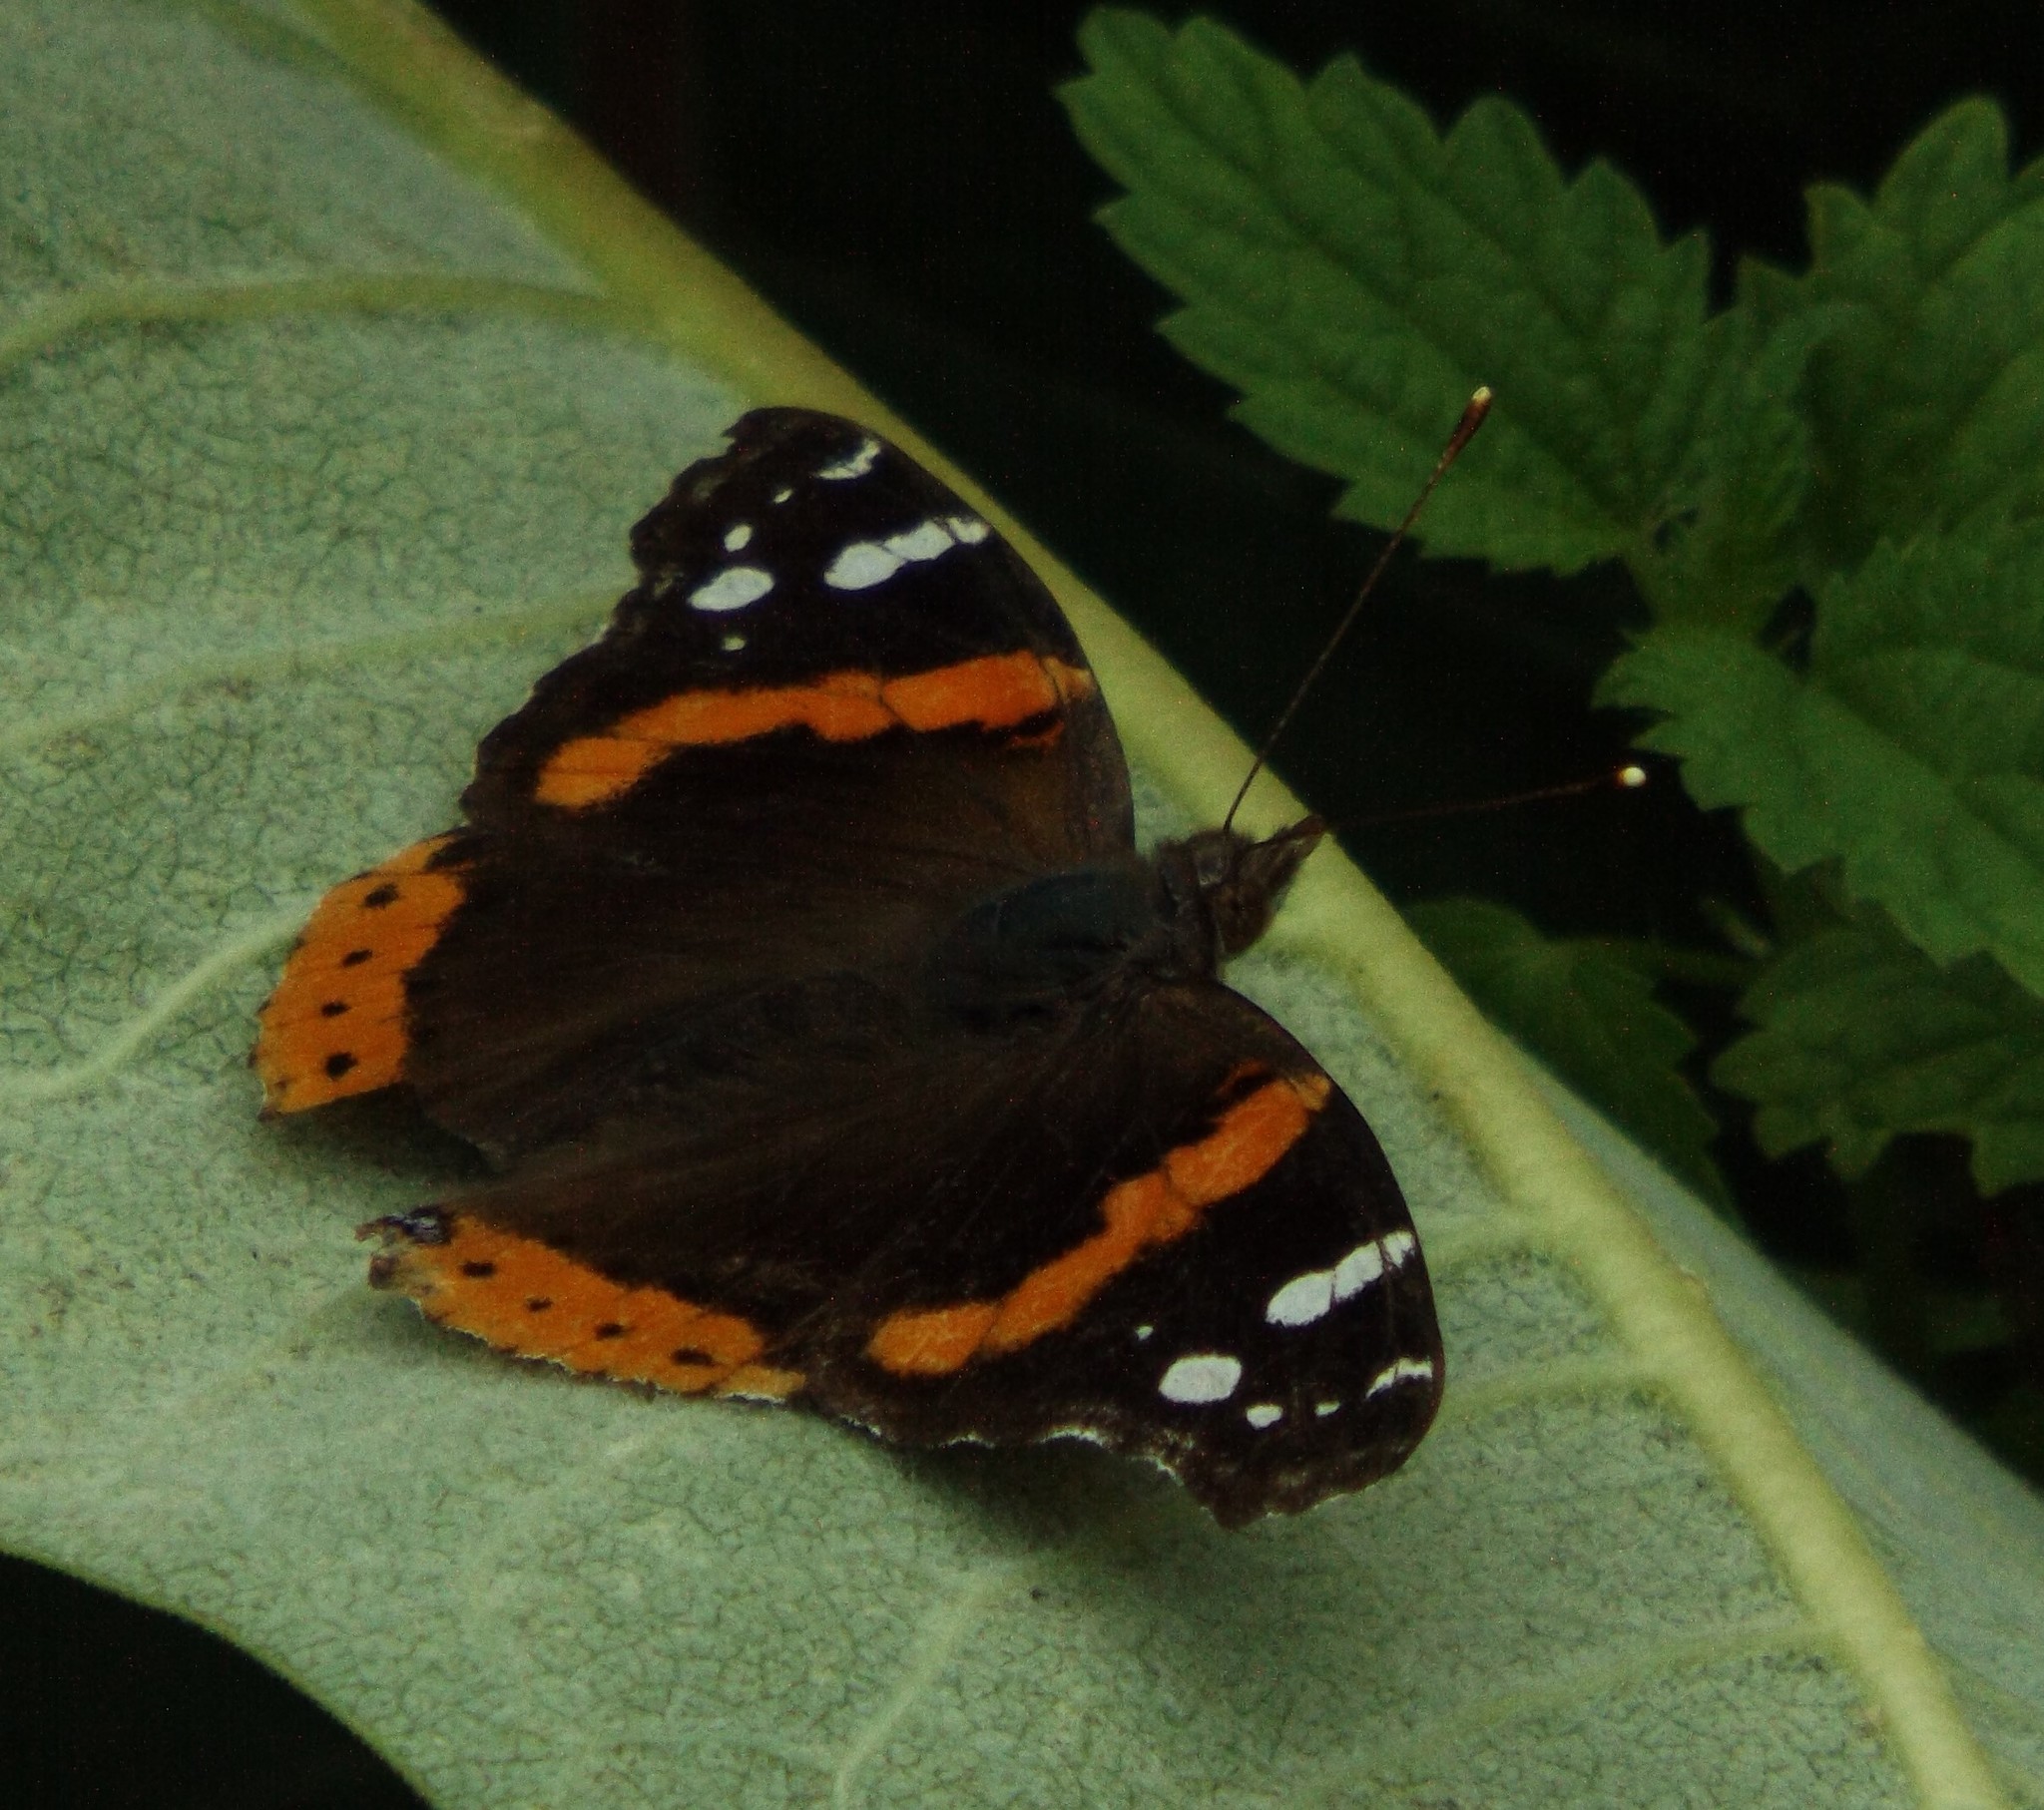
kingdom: Animalia
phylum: Arthropoda
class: Insecta
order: Lepidoptera
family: Nymphalidae
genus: Vanessa
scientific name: Vanessa atalanta
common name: Red admiral
